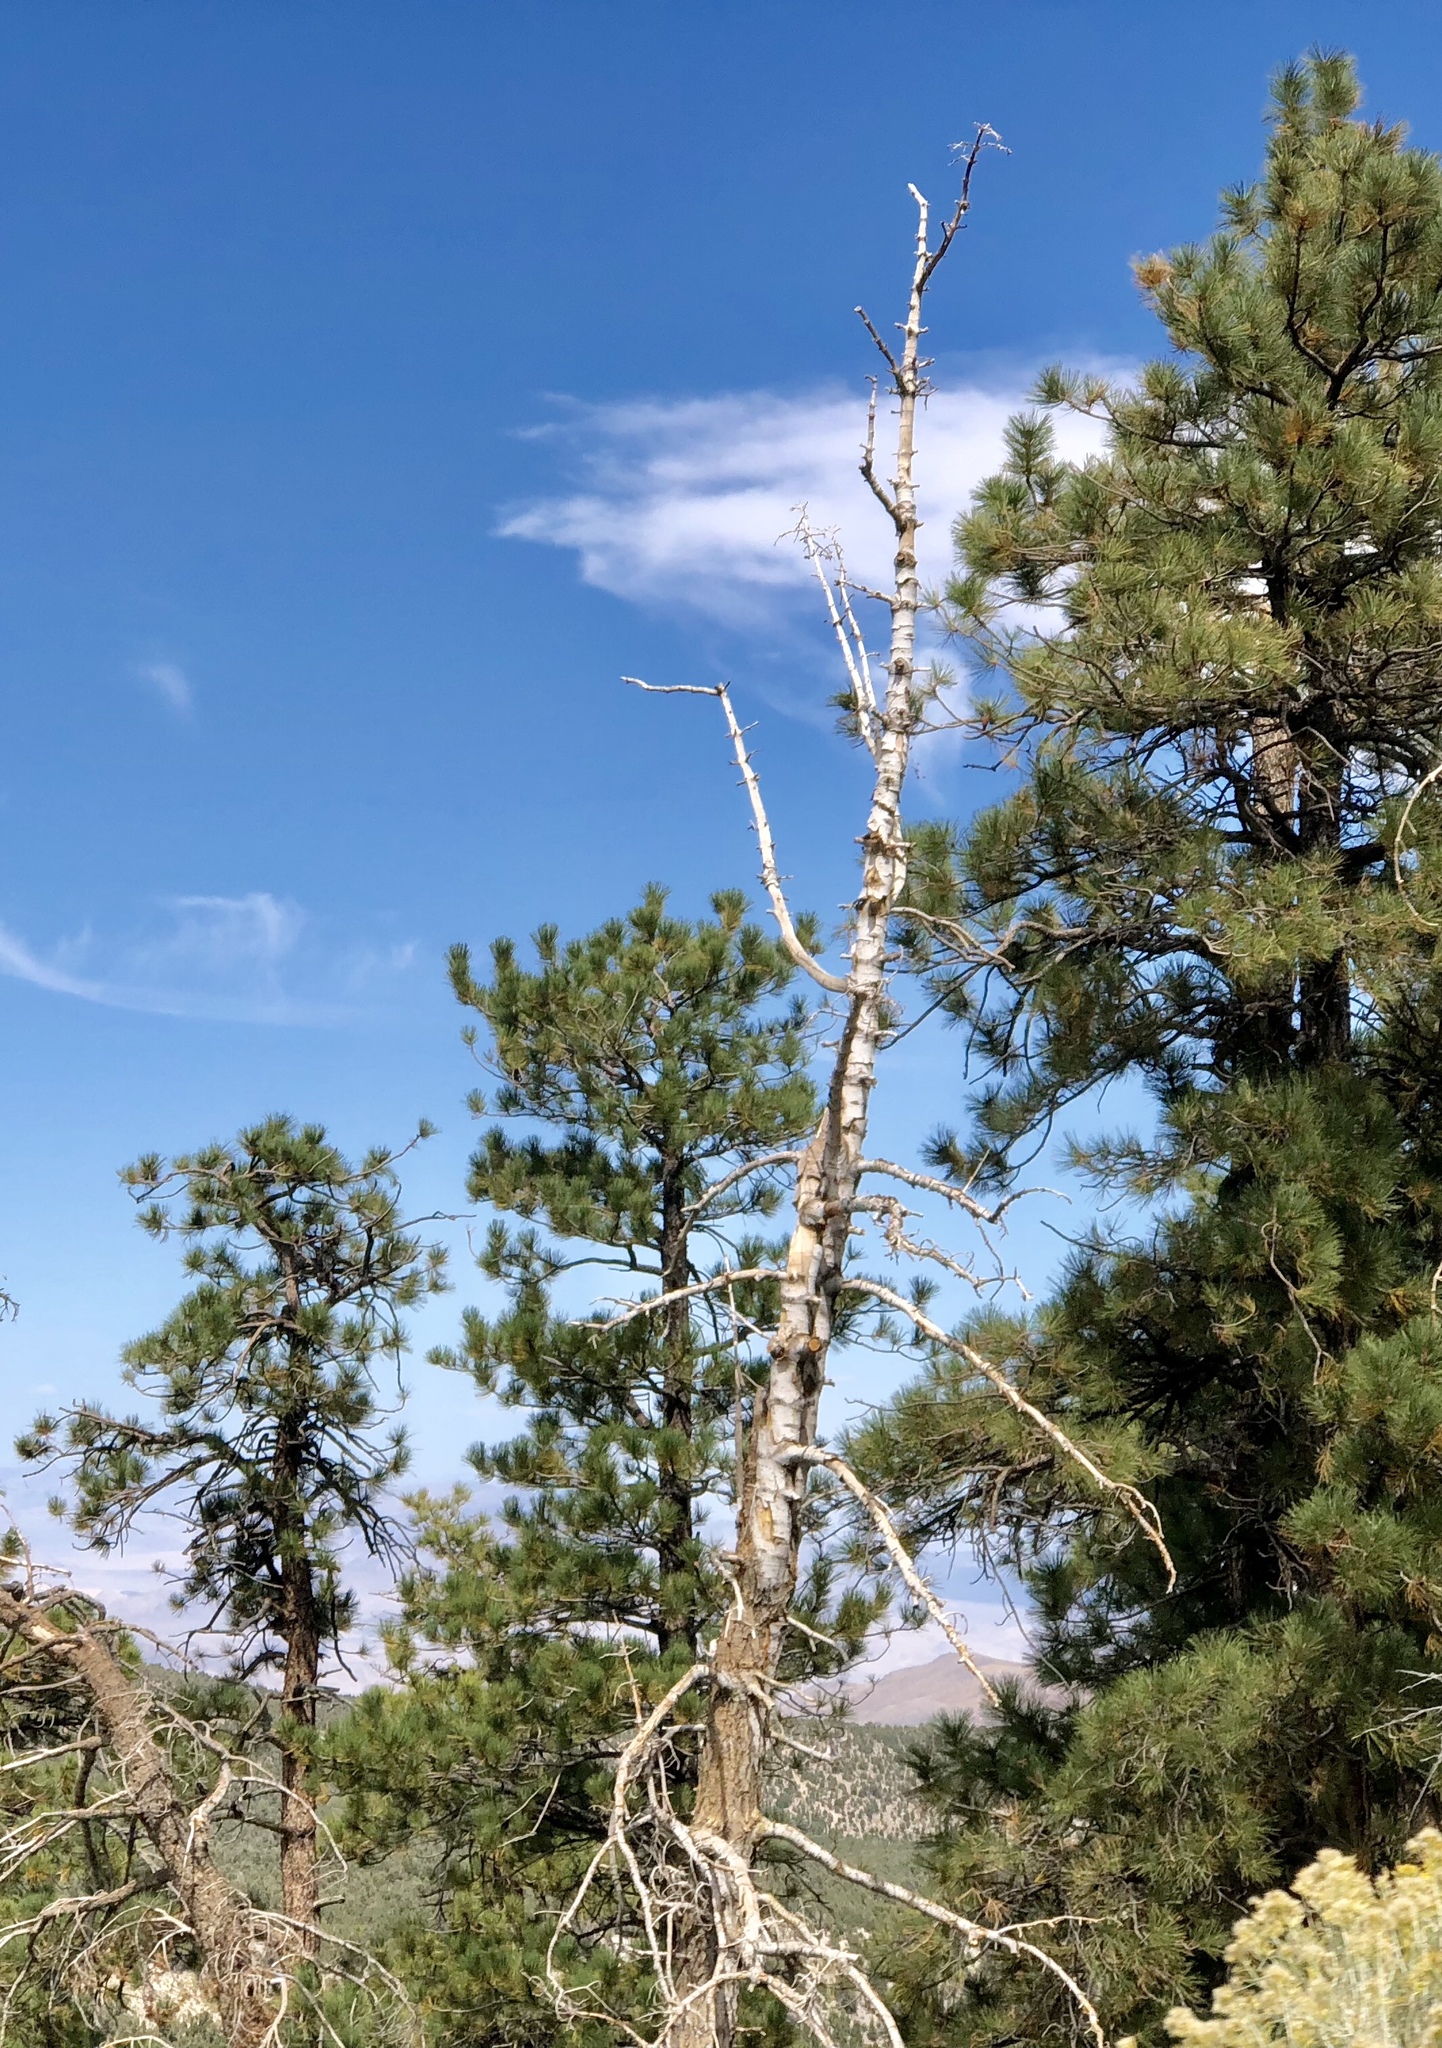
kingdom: Plantae
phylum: Tracheophyta
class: Pinopsida
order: Pinales
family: Pinaceae
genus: Pinus
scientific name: Pinus ponderosa
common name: Western yellow-pine
